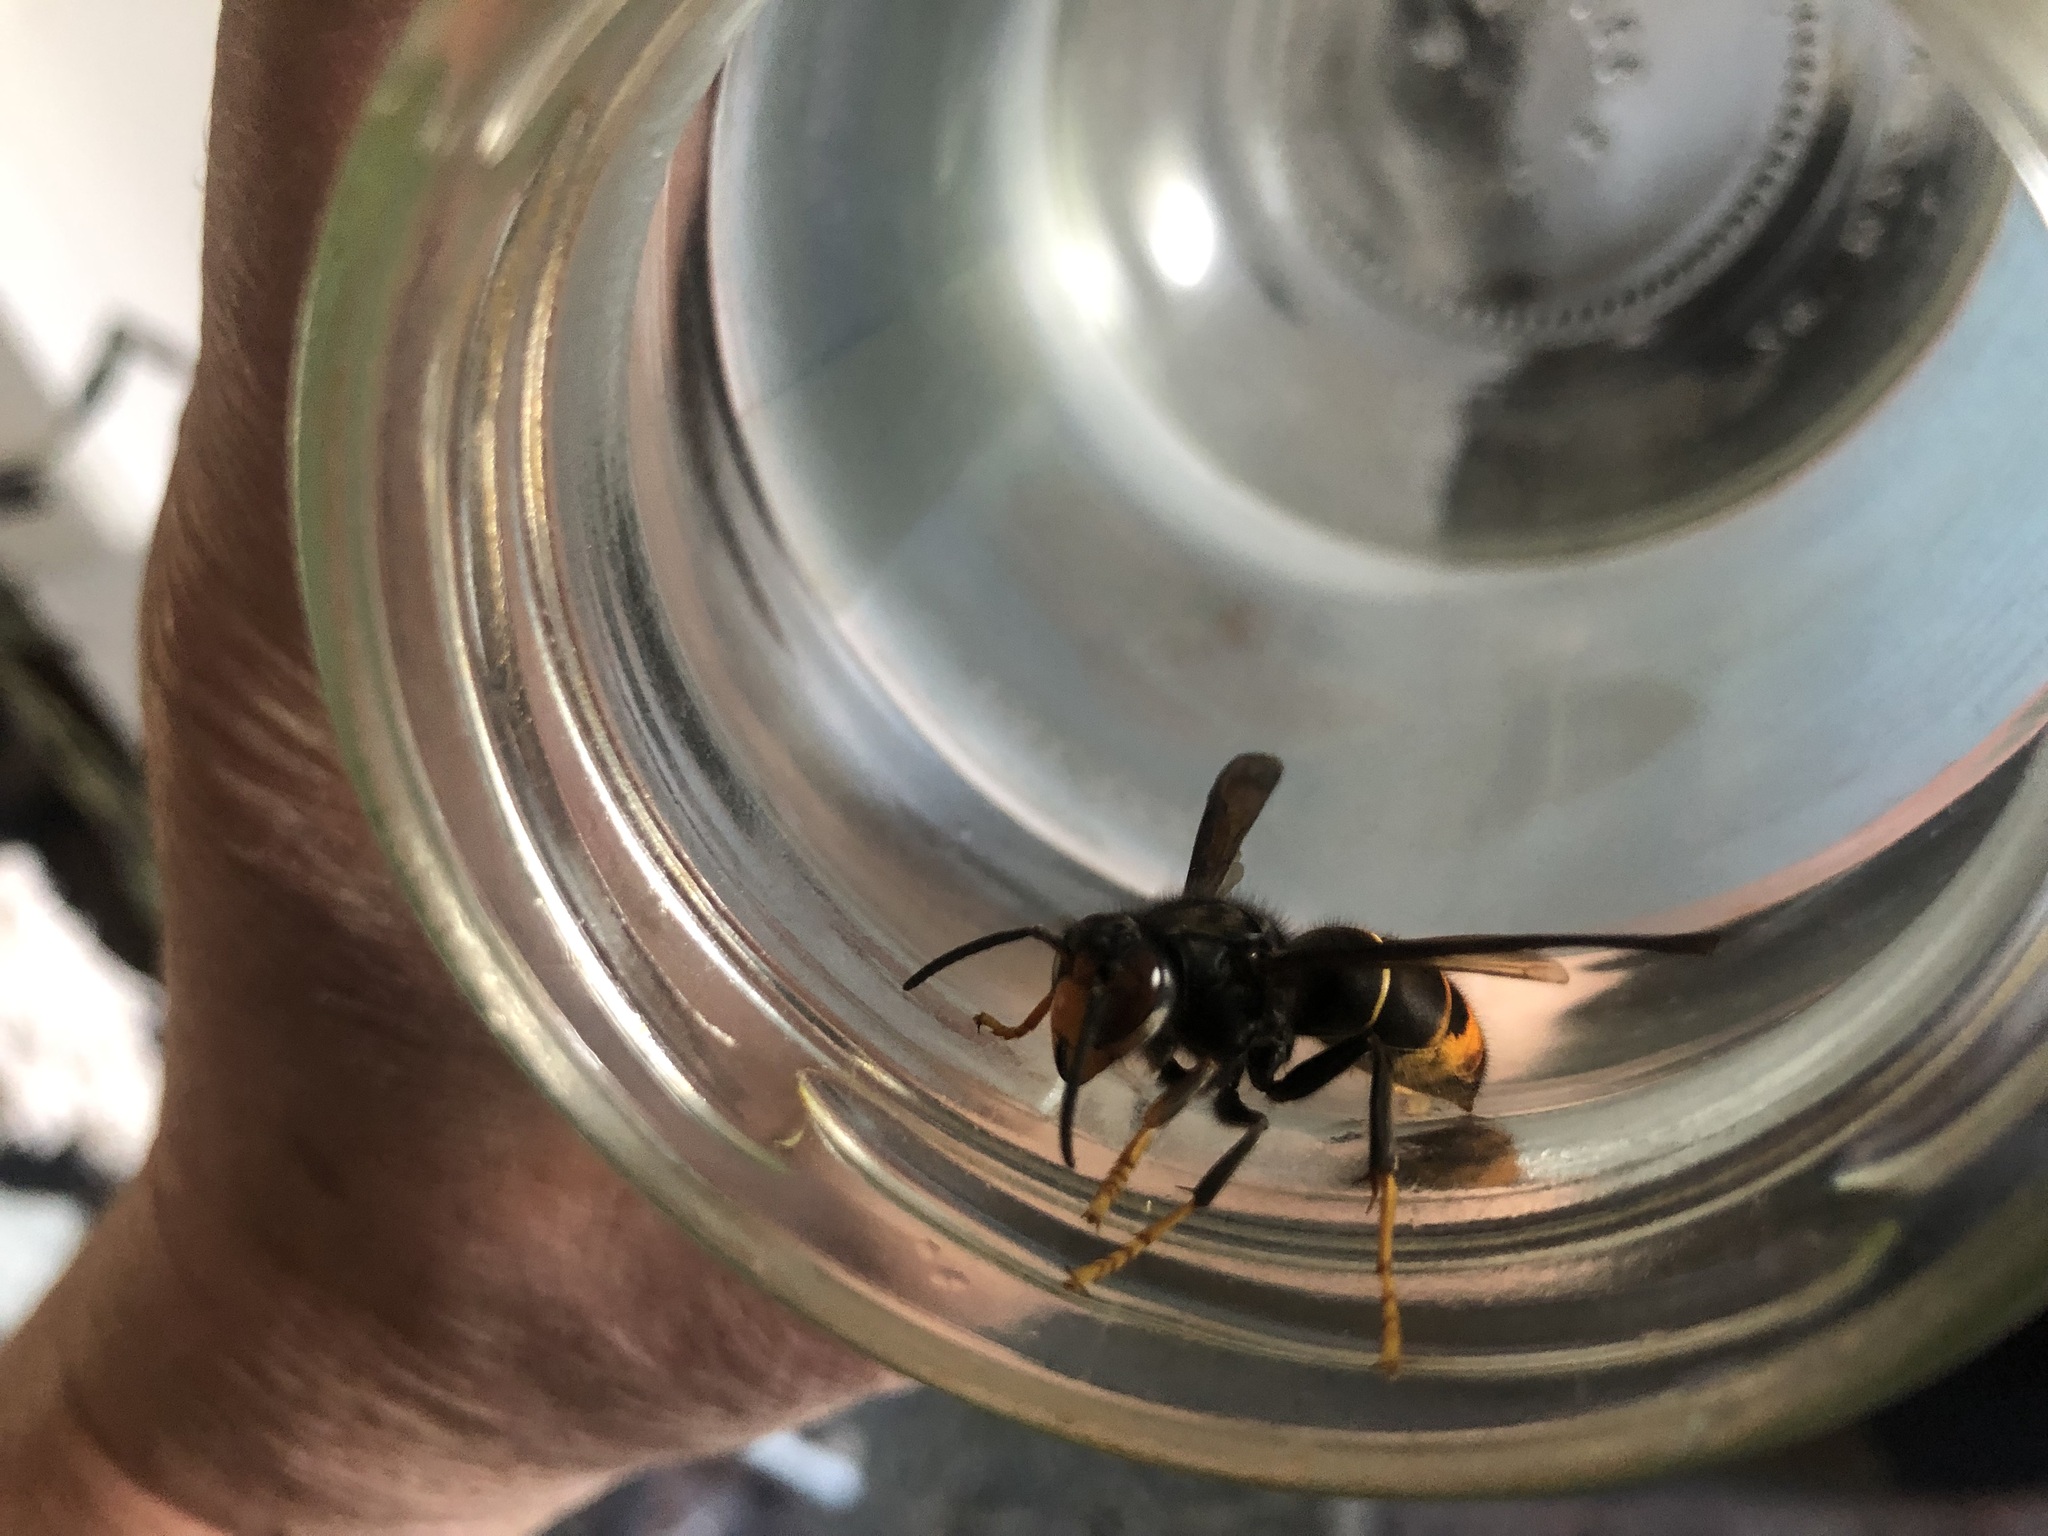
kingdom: Animalia
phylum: Arthropoda
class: Insecta
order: Hymenoptera
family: Vespidae
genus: Vespa
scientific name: Vespa velutina
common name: Asian hornet
